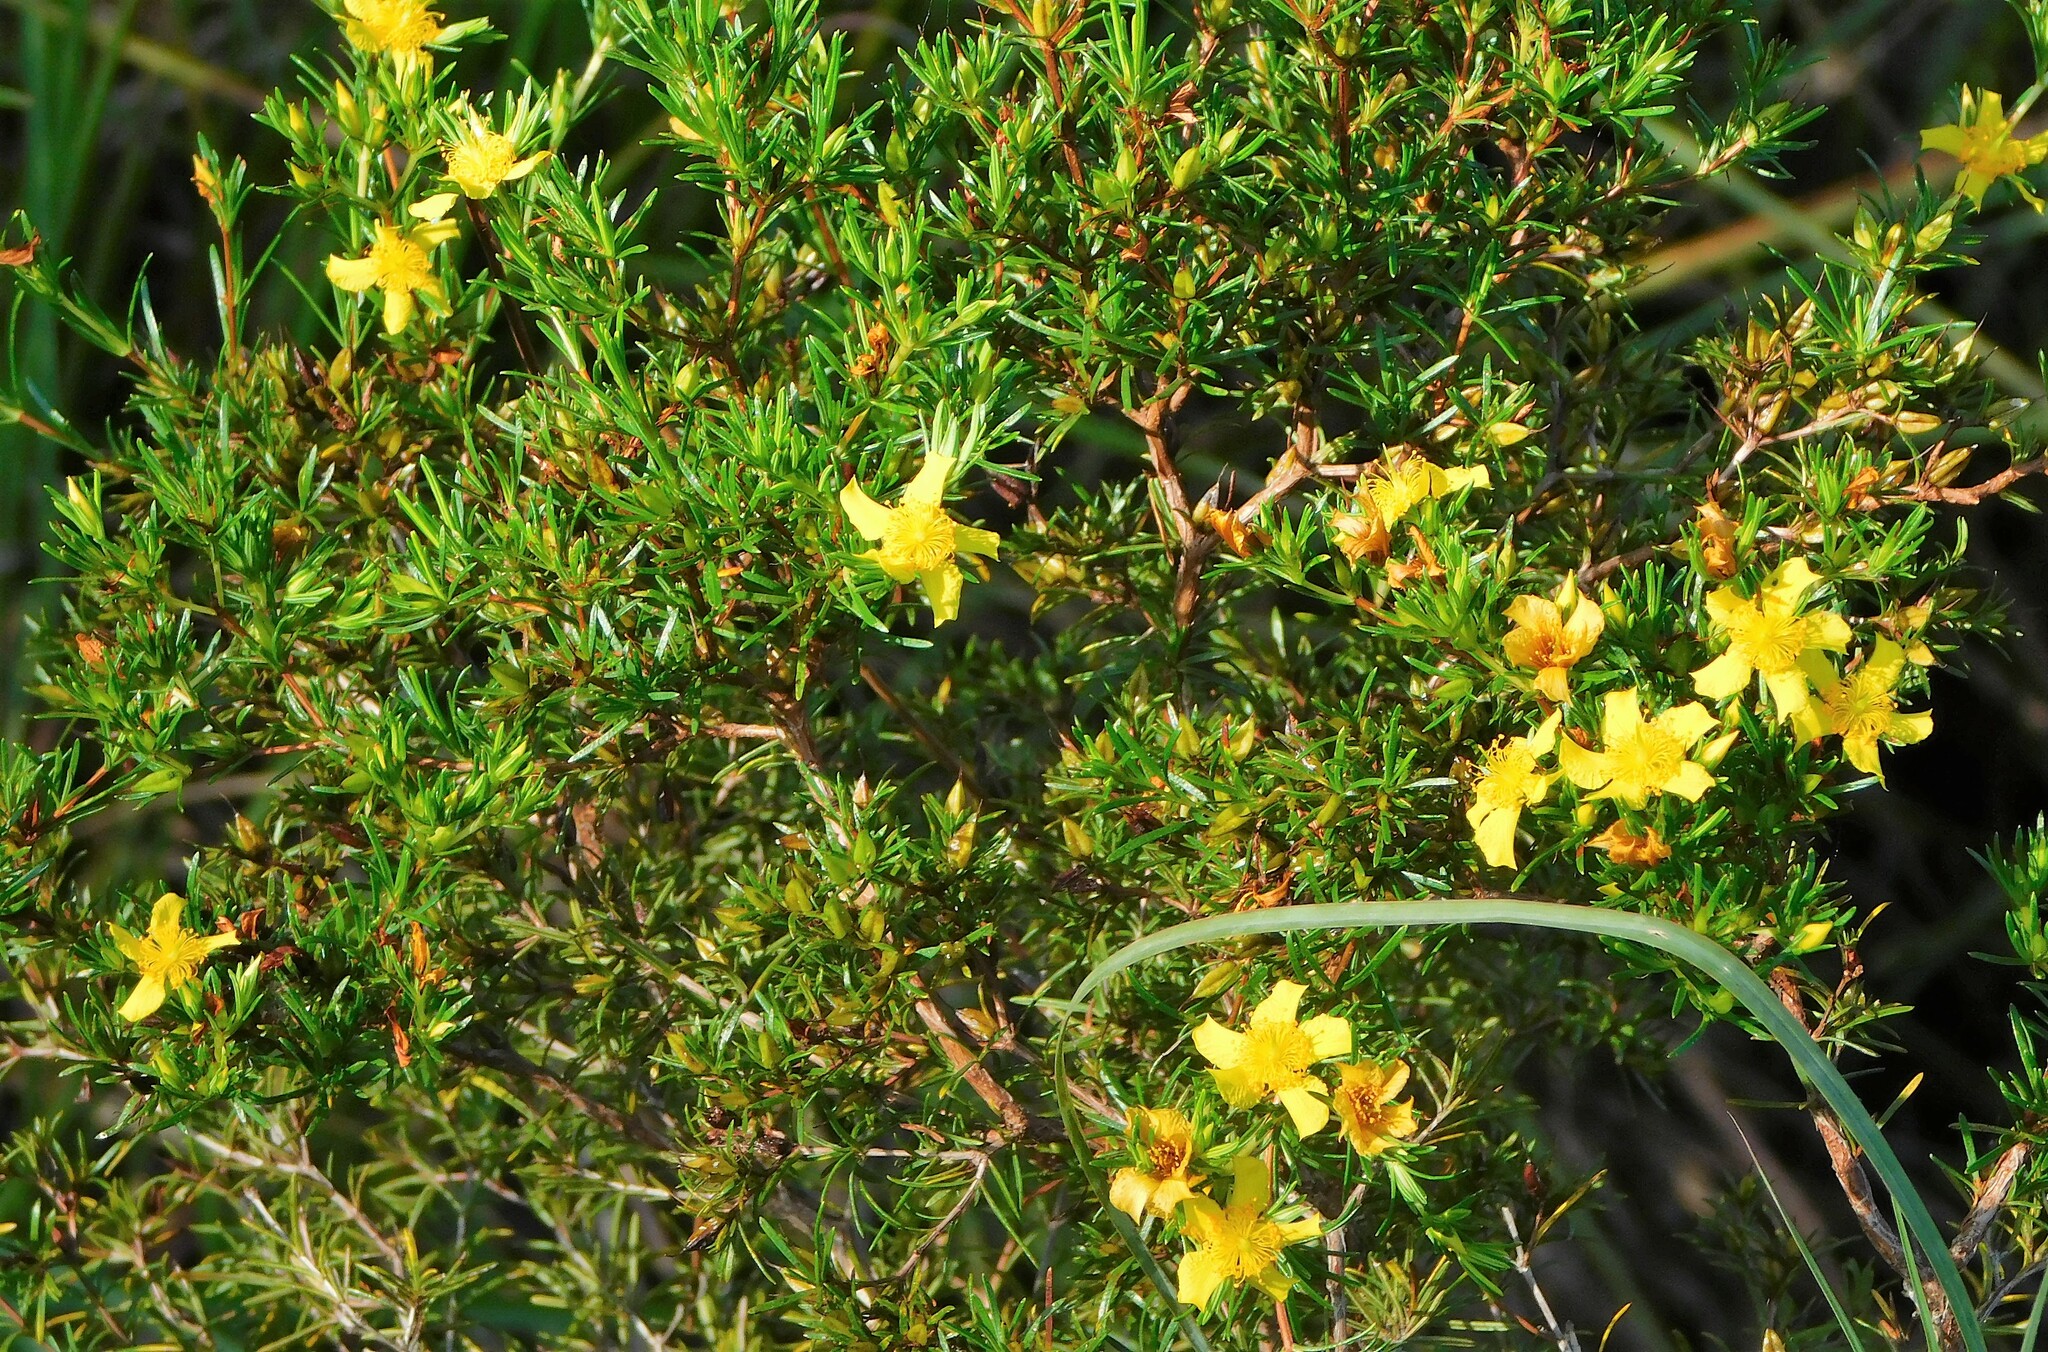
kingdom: Plantae
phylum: Tracheophyta
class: Magnoliopsida
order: Malpighiales
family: Hypericaceae
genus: Hypericum
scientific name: Hypericum fasciculatum
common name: Peelbark st. john's wort
